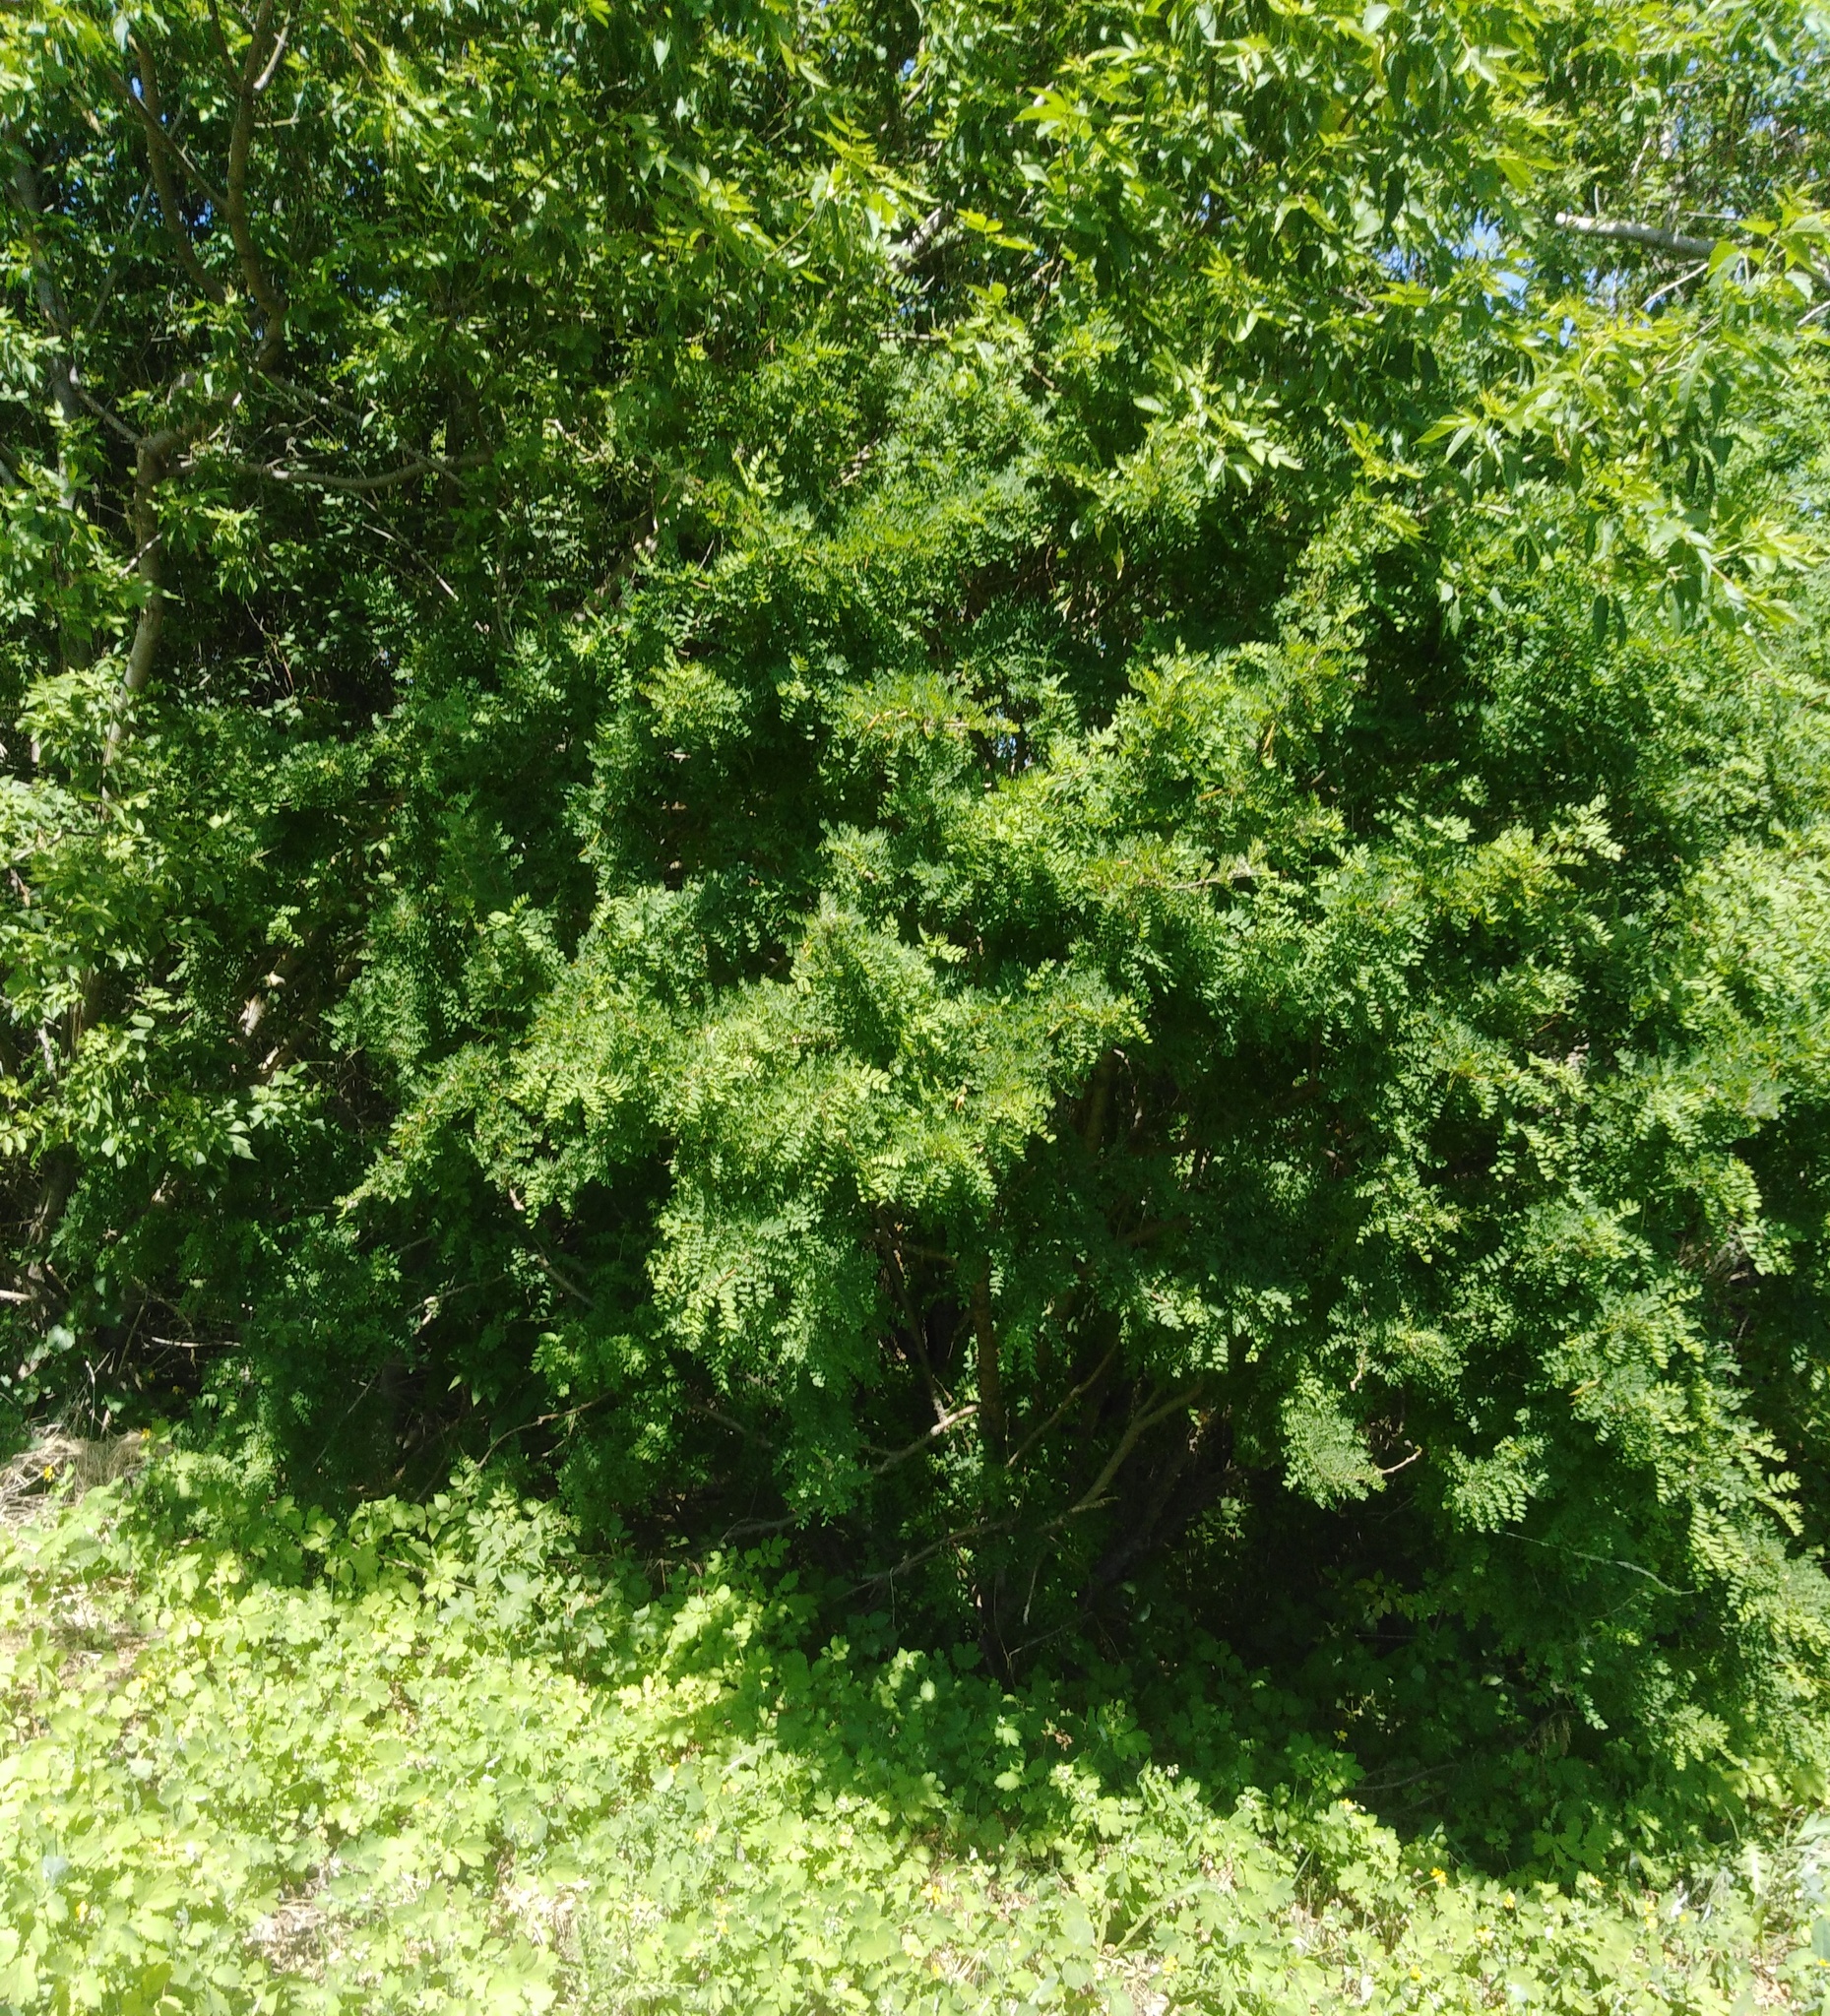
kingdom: Plantae
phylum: Tracheophyta
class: Magnoliopsida
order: Fabales
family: Fabaceae
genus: Caragana
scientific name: Caragana arborescens
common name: Siberian peashrub
